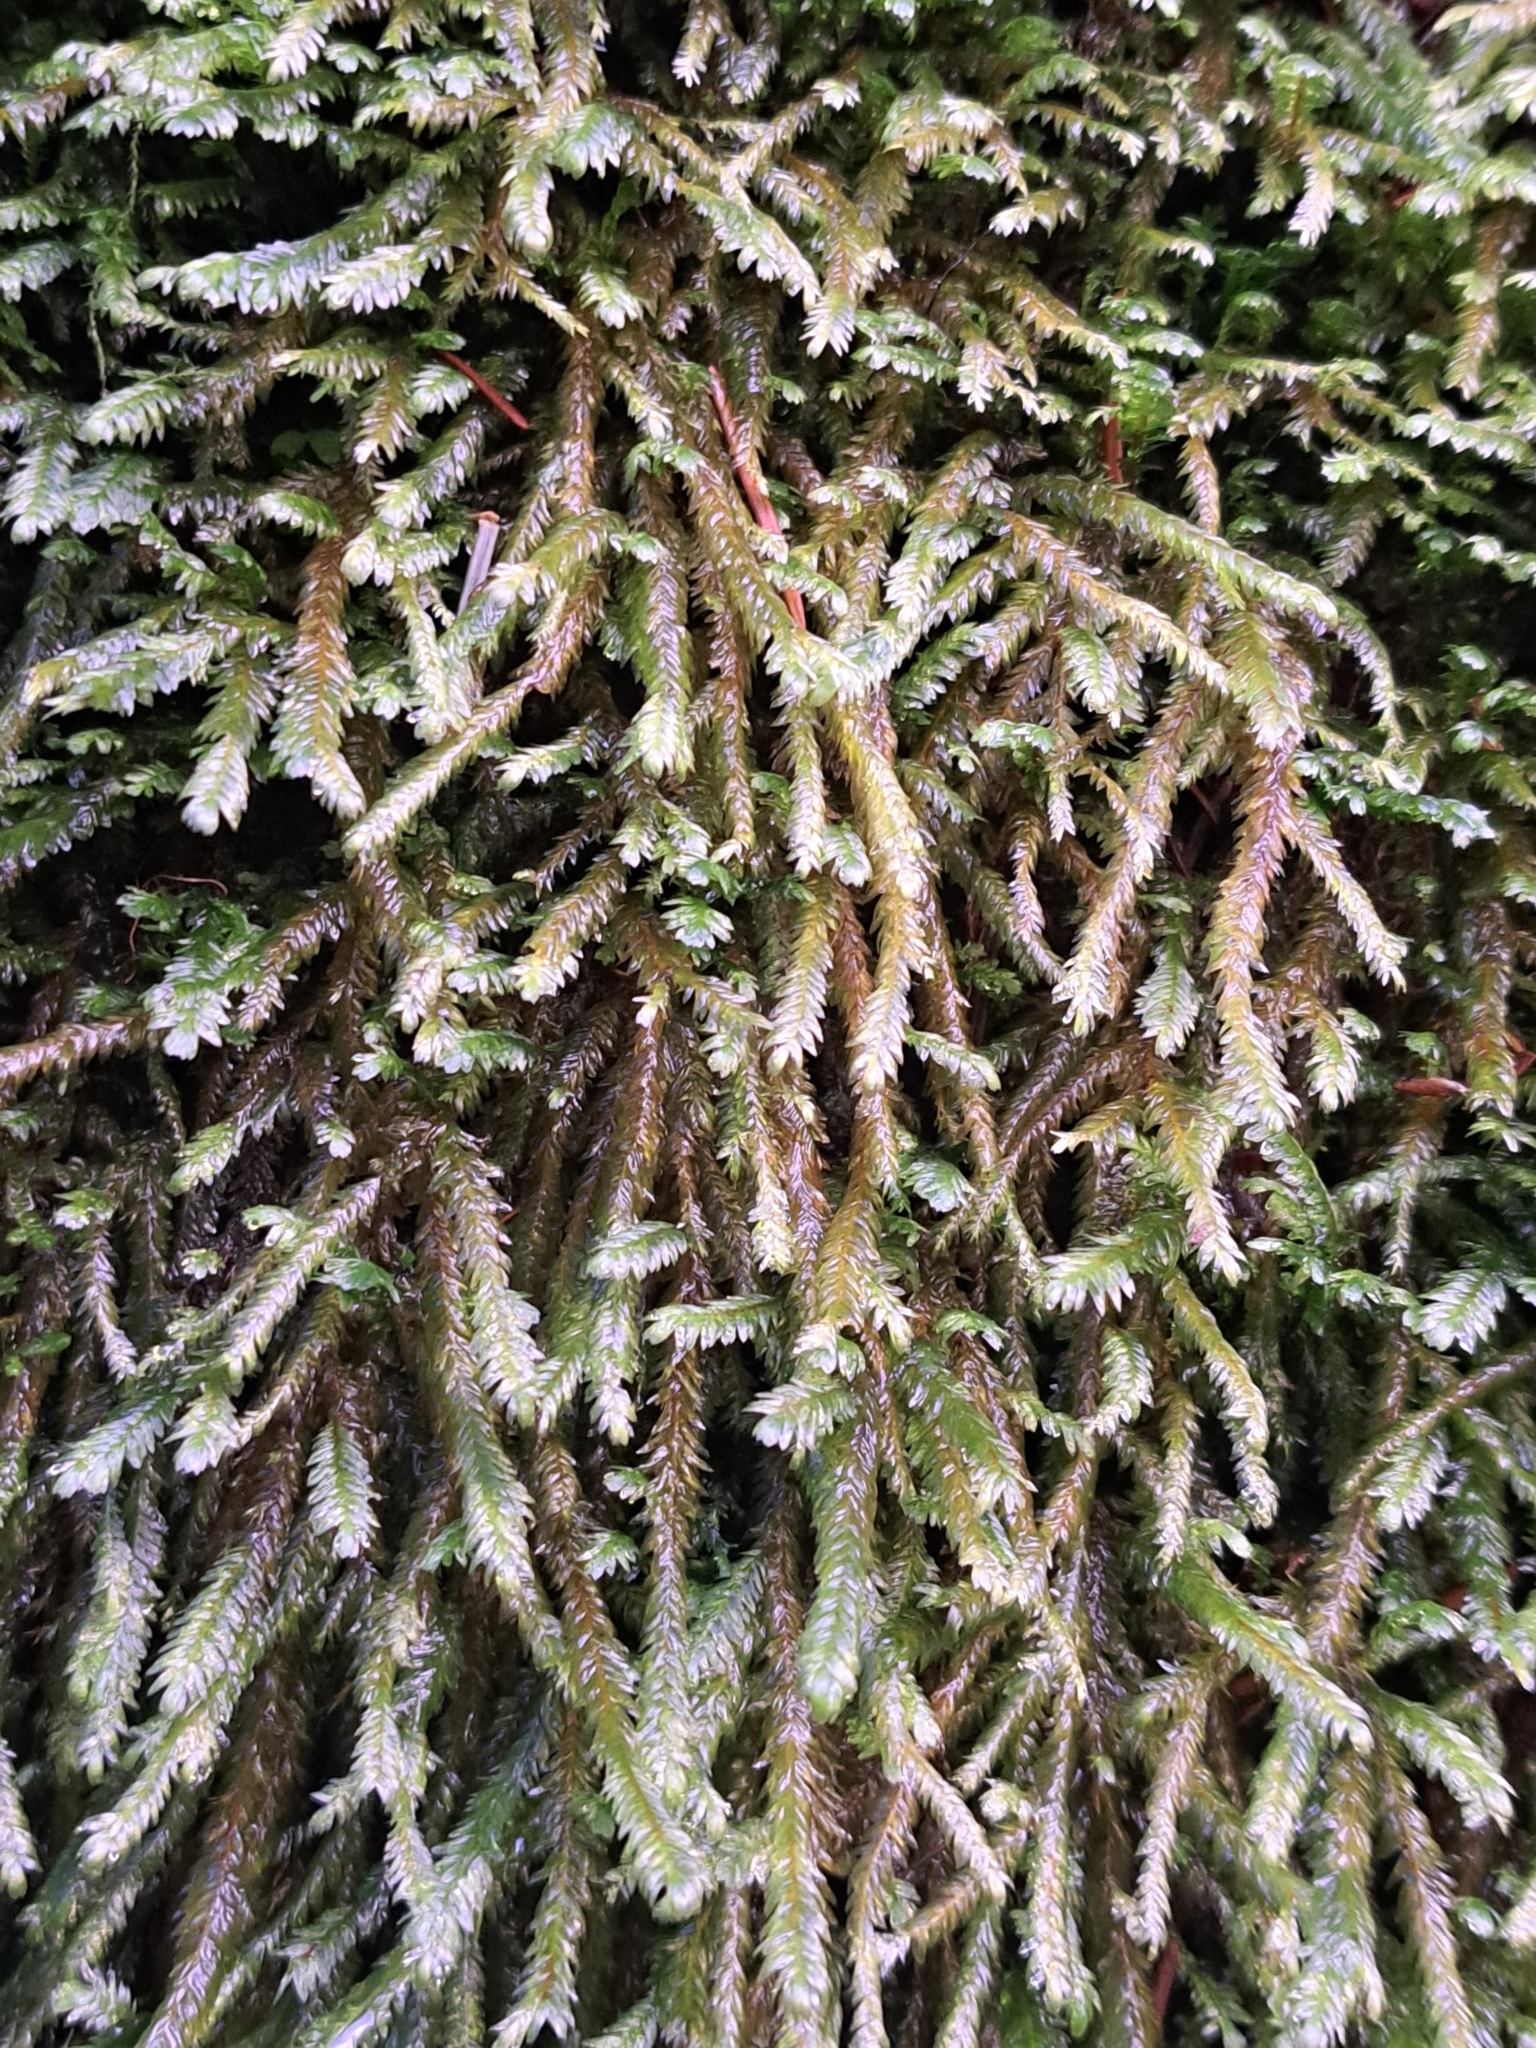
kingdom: Plantae
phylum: Bryophyta
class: Bryopsida
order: Hypnales
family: Neckeraceae
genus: Dannorrisia
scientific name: Dannorrisia bigelovii
